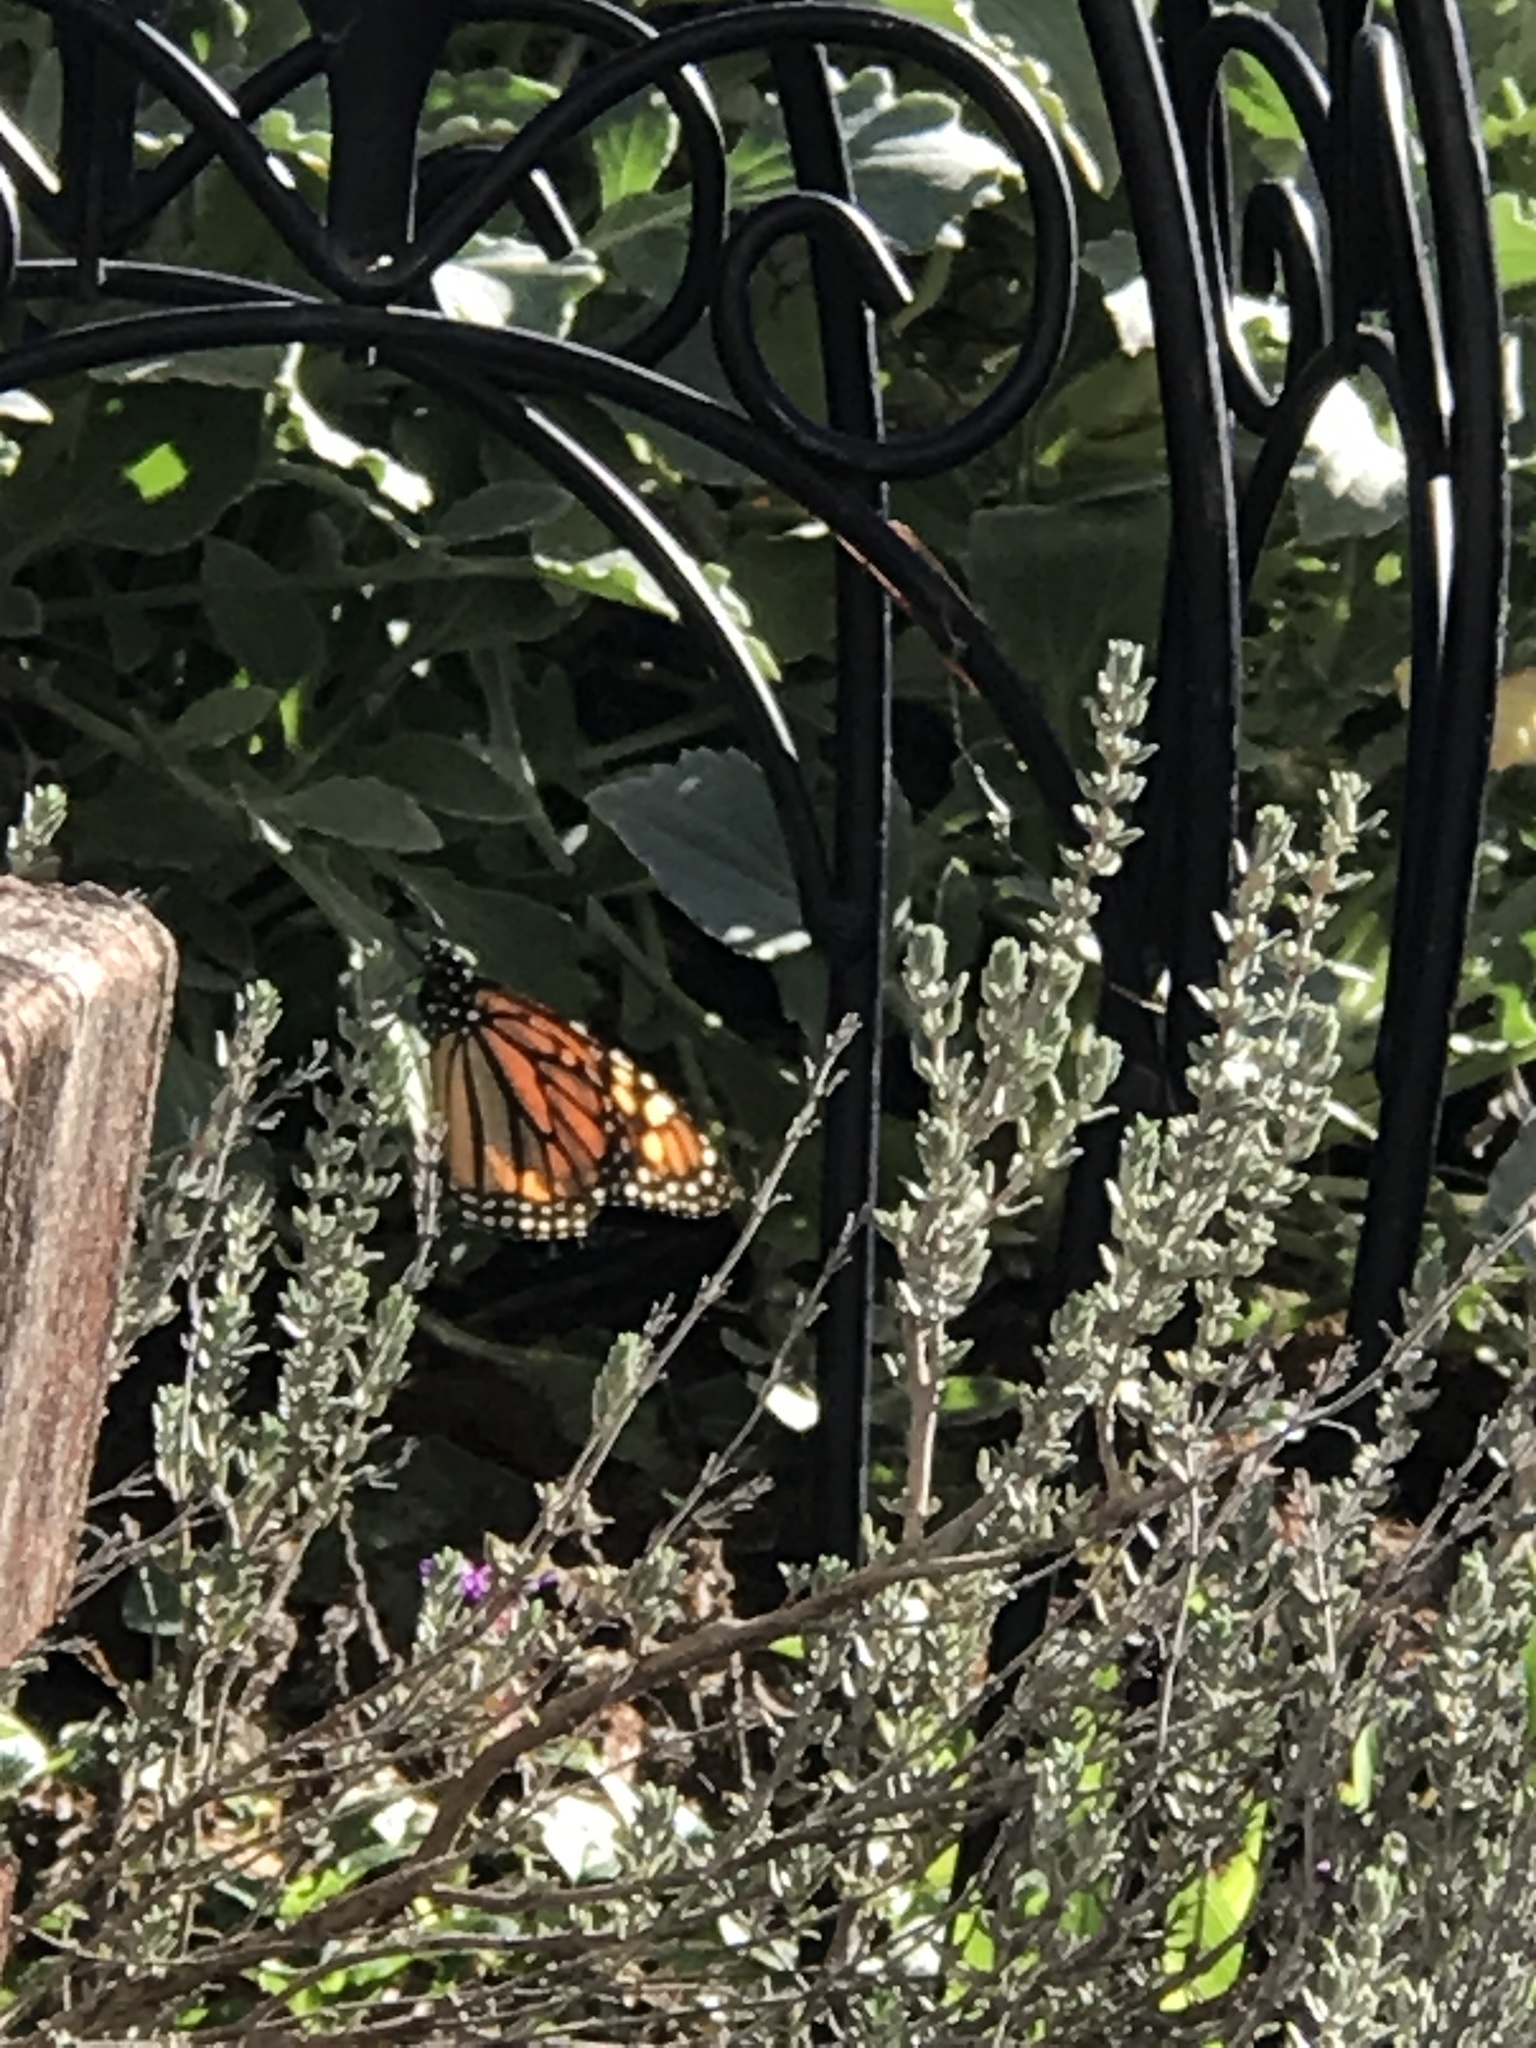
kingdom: Animalia
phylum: Arthropoda
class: Insecta
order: Lepidoptera
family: Nymphalidae
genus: Danaus
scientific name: Danaus plexippus
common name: Monarch
